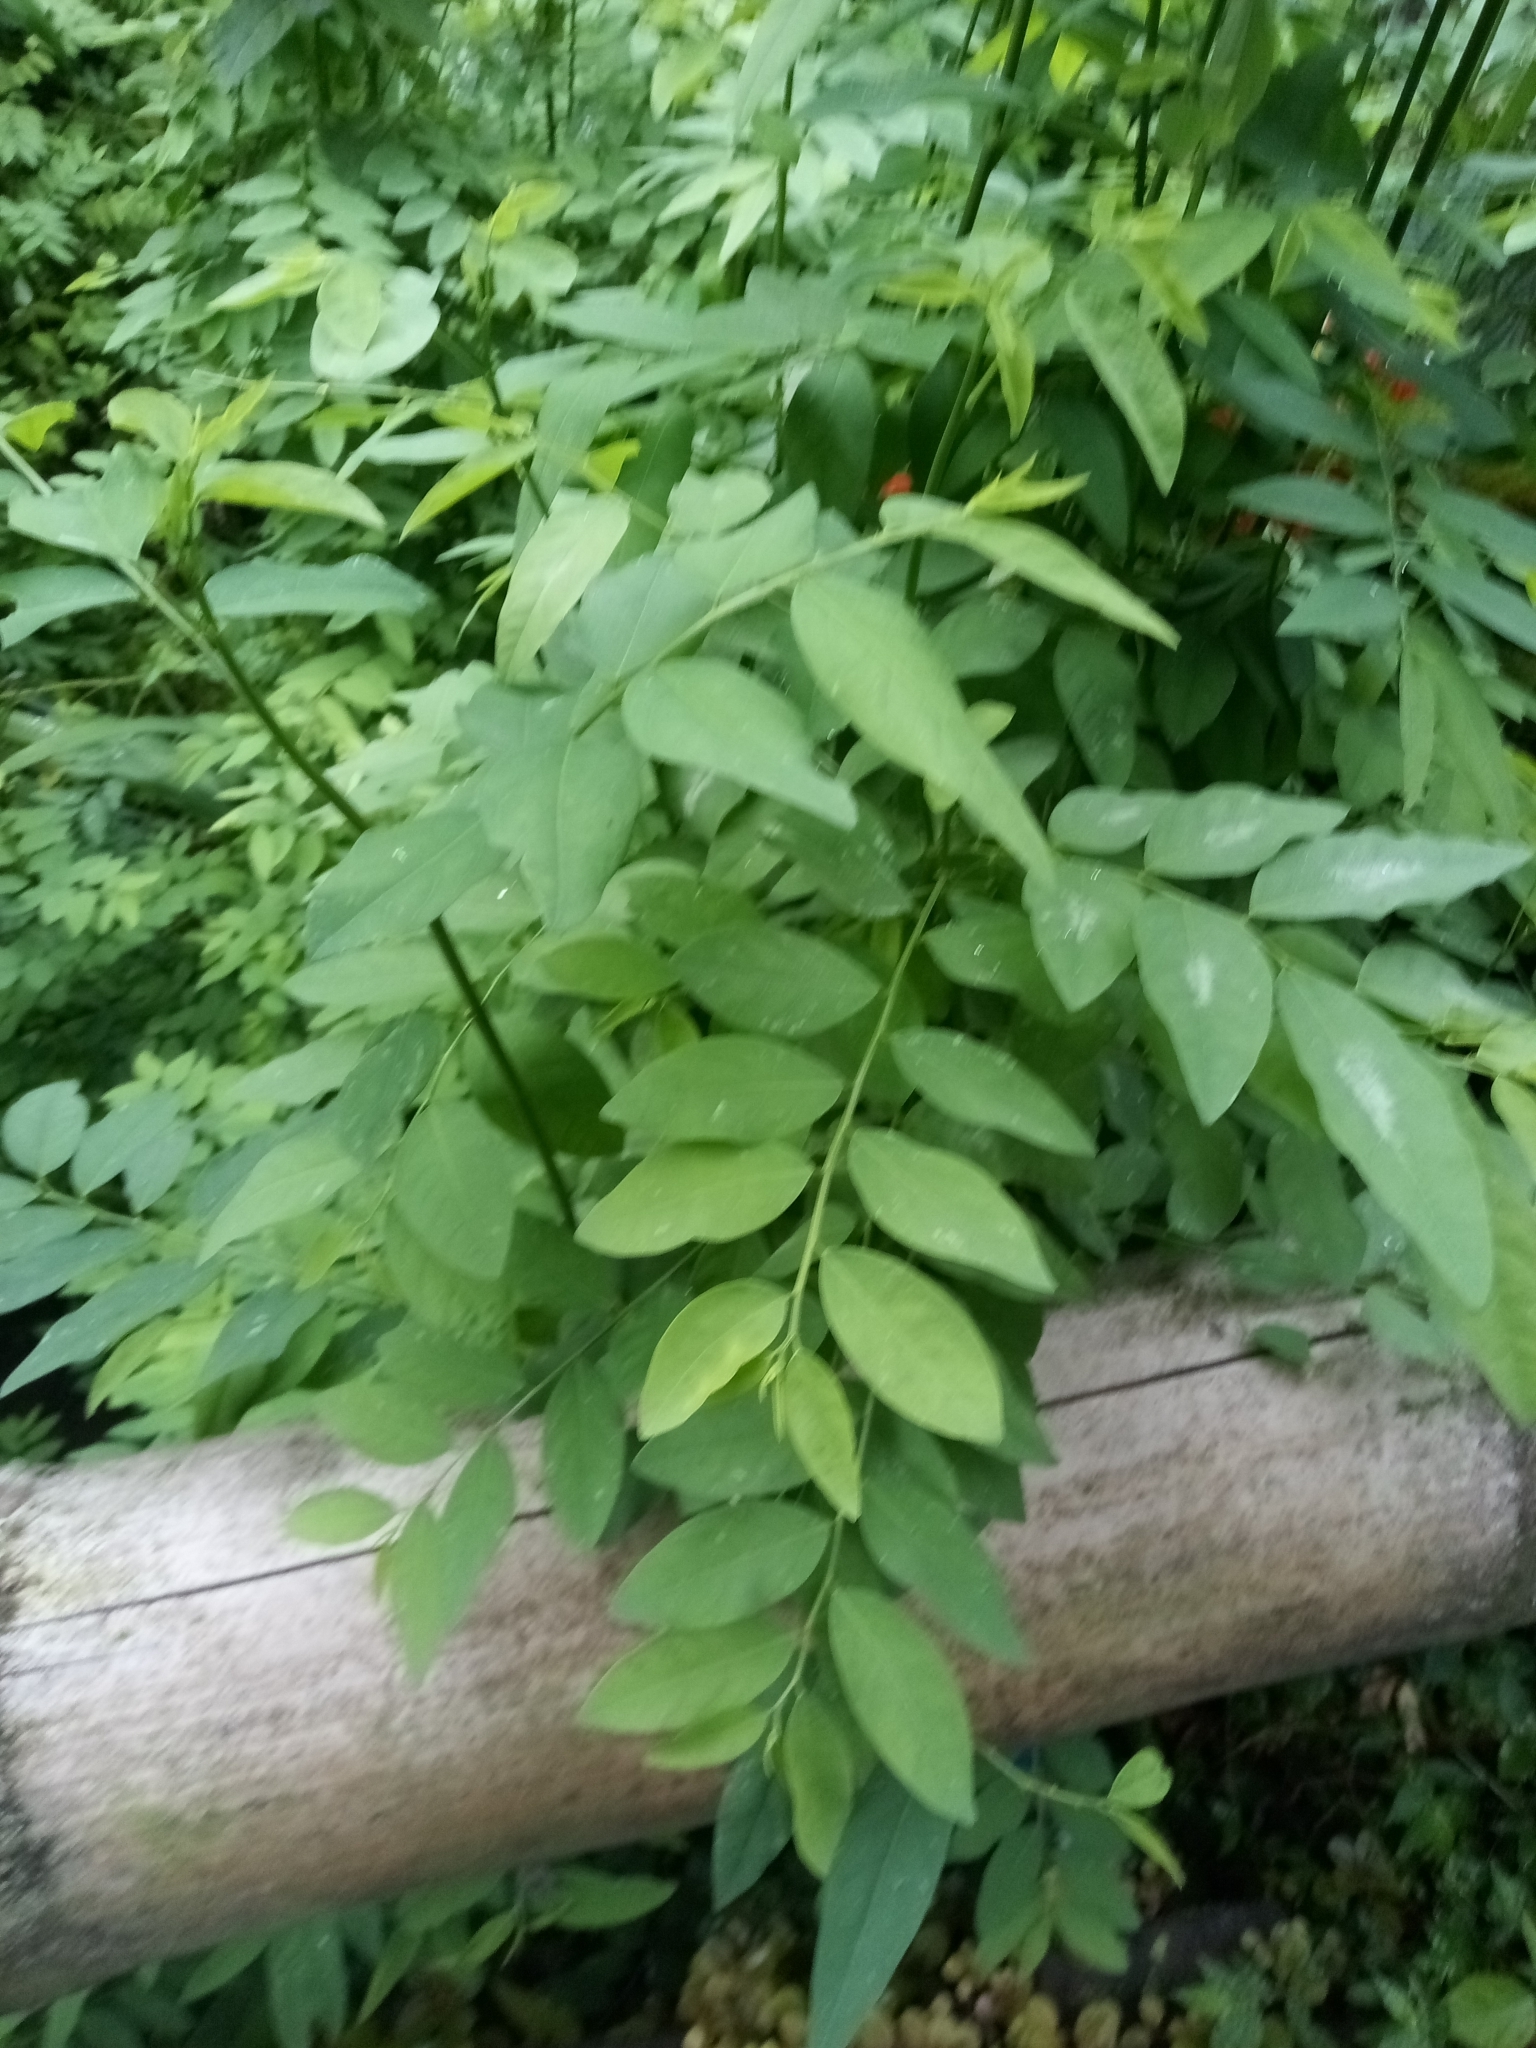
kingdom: Plantae
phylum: Tracheophyta
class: Magnoliopsida
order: Malpighiales
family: Phyllanthaceae
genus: Breynia
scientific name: Breynia androgyna
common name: Star gooseberry
